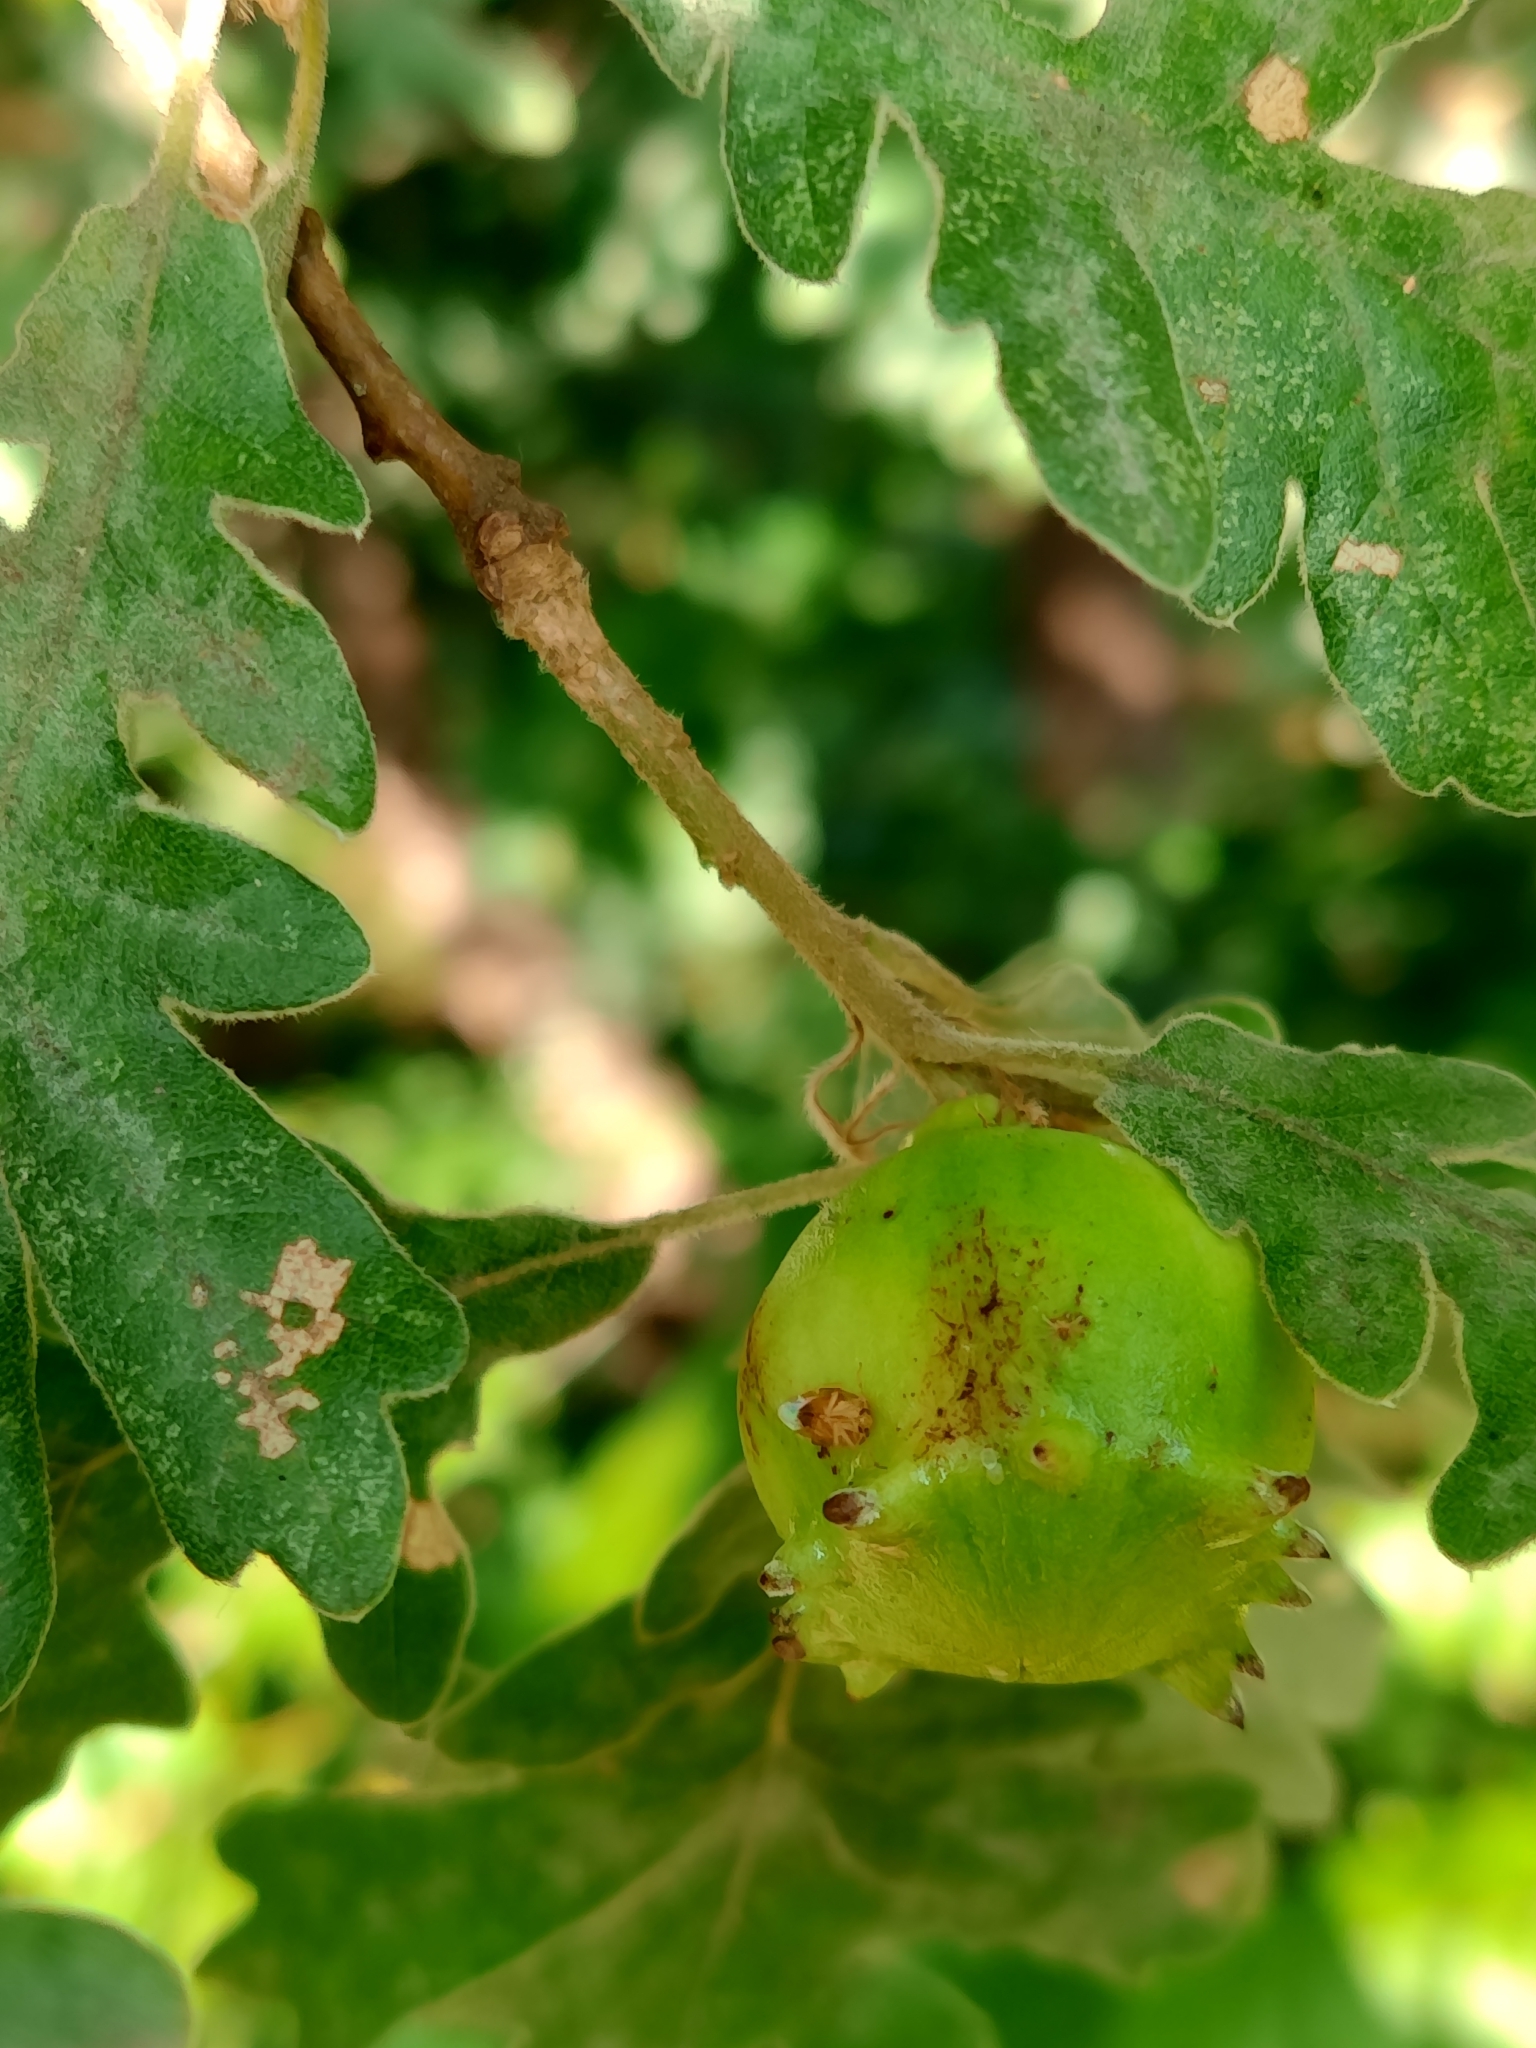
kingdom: Animalia
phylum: Arthropoda
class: Insecta
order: Hymenoptera
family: Cynipidae
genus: Andricus
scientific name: Andricus quercustozae
